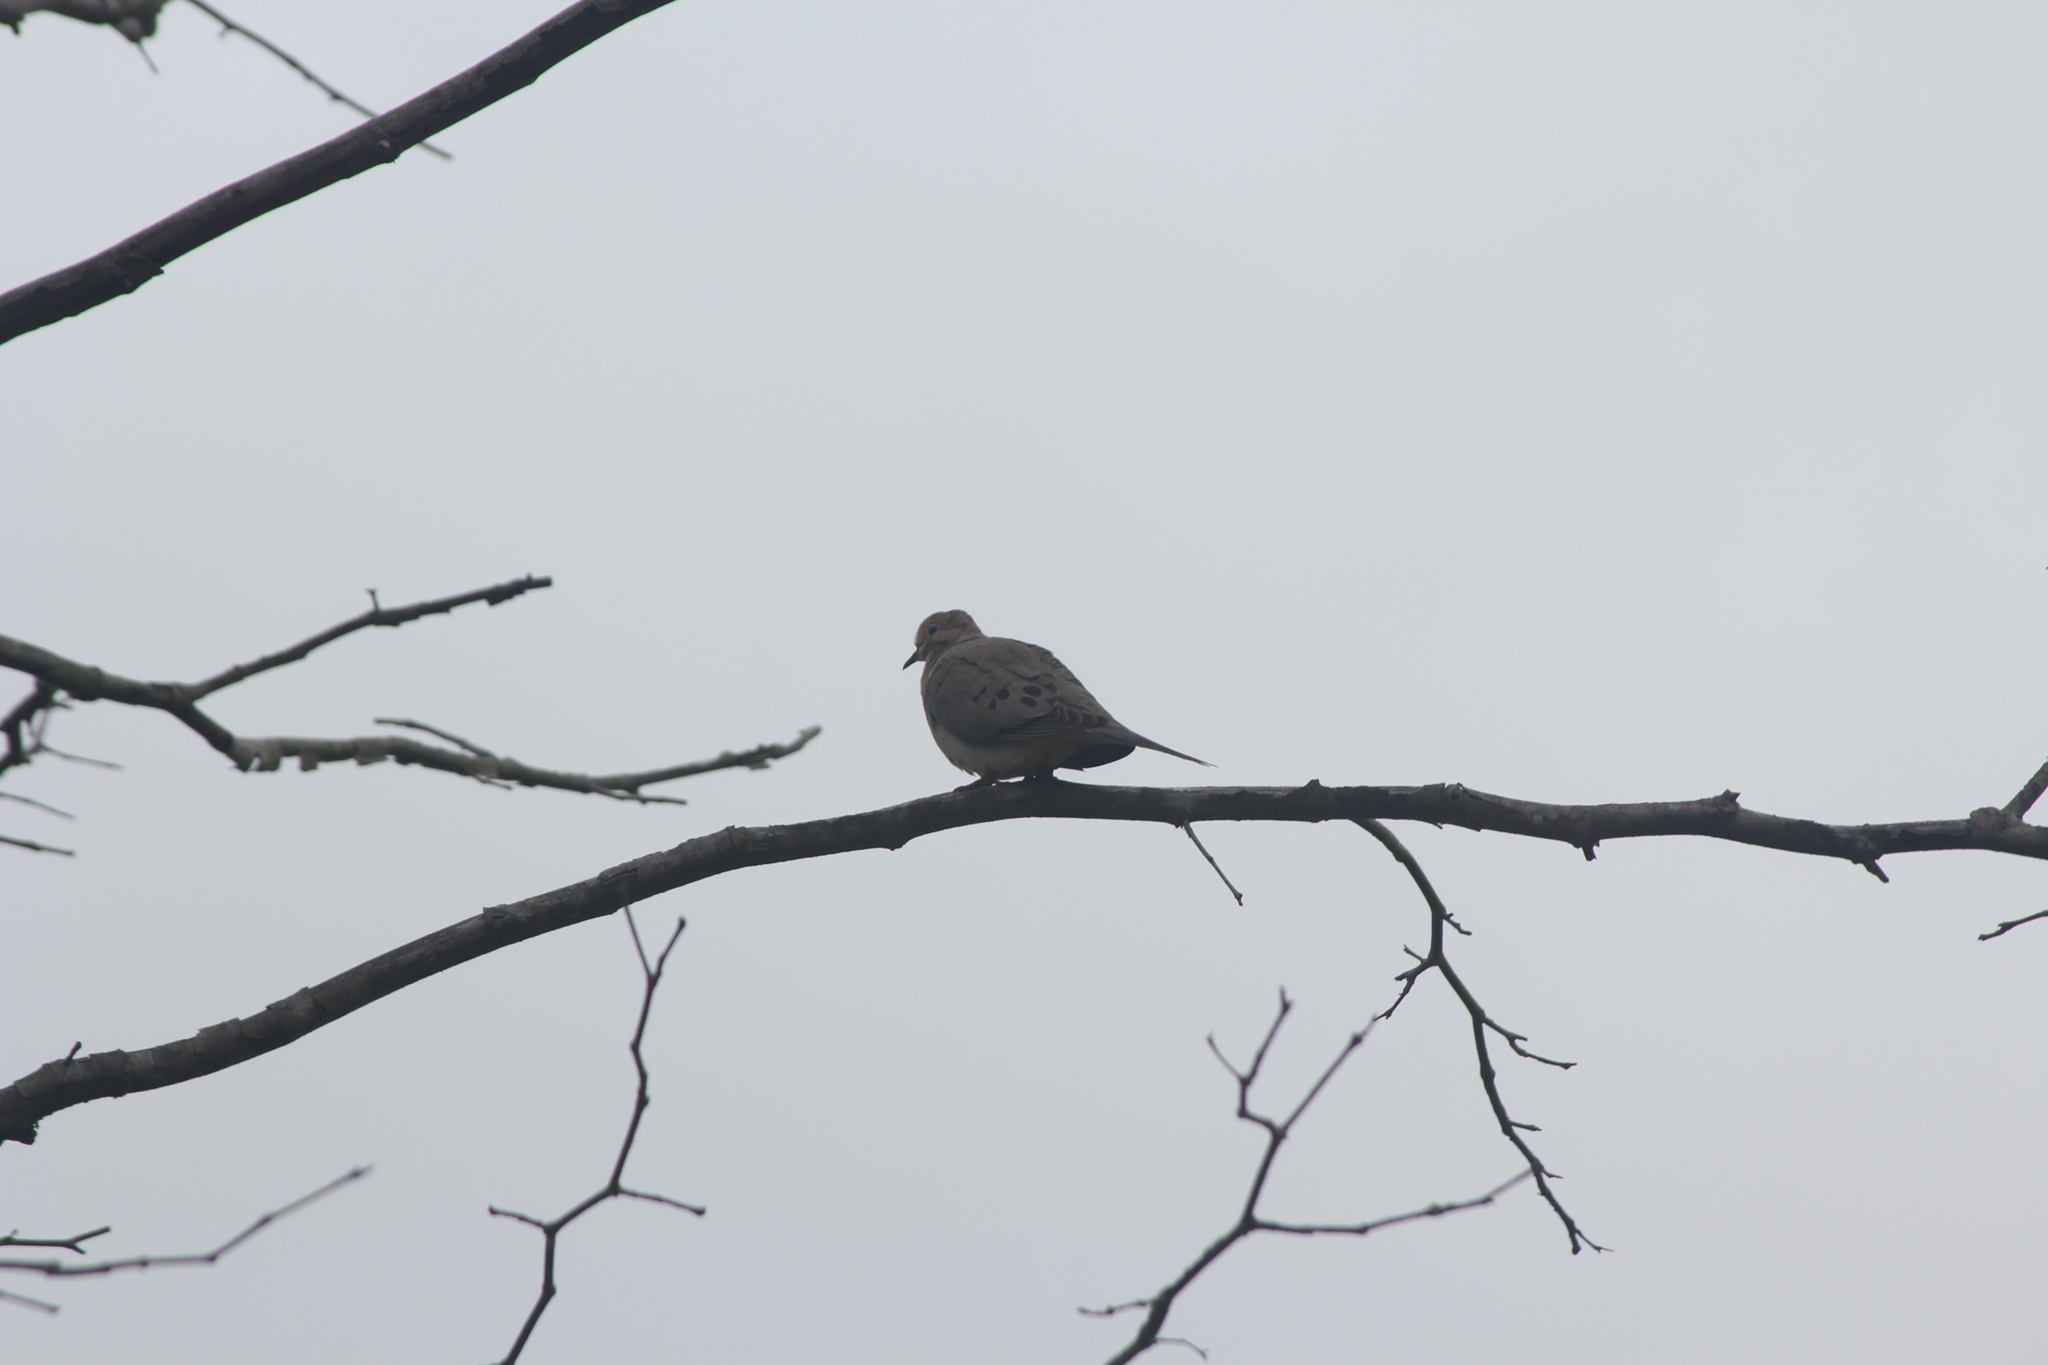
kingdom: Animalia
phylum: Chordata
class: Aves
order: Columbiformes
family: Columbidae
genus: Zenaida
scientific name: Zenaida macroura
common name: Mourning dove
